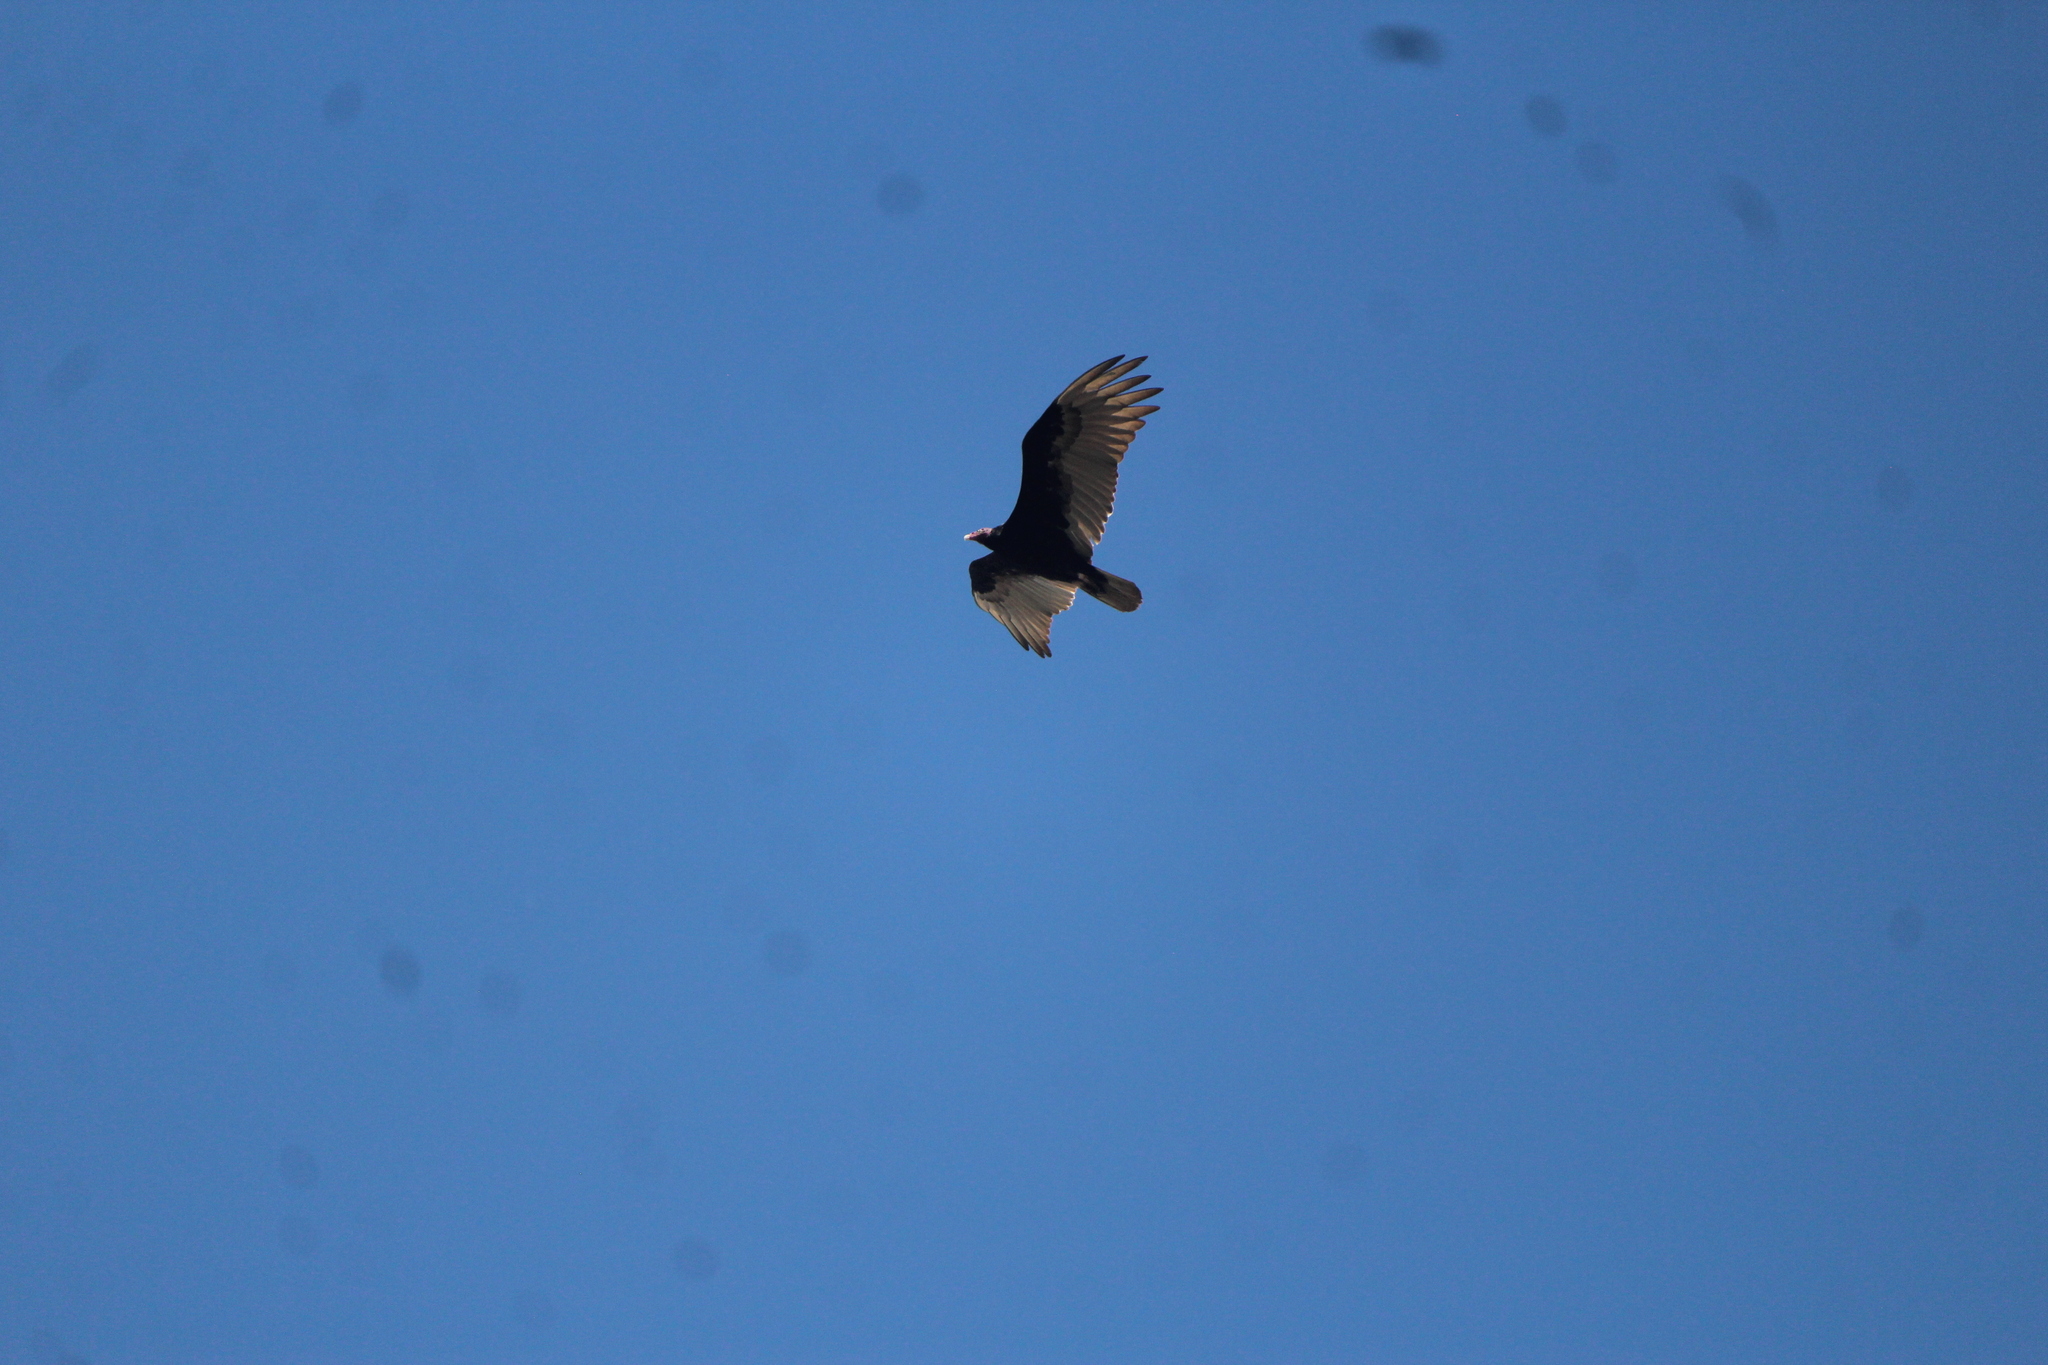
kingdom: Animalia
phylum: Chordata
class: Aves
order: Accipitriformes
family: Cathartidae
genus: Cathartes
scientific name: Cathartes aura
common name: Turkey vulture
